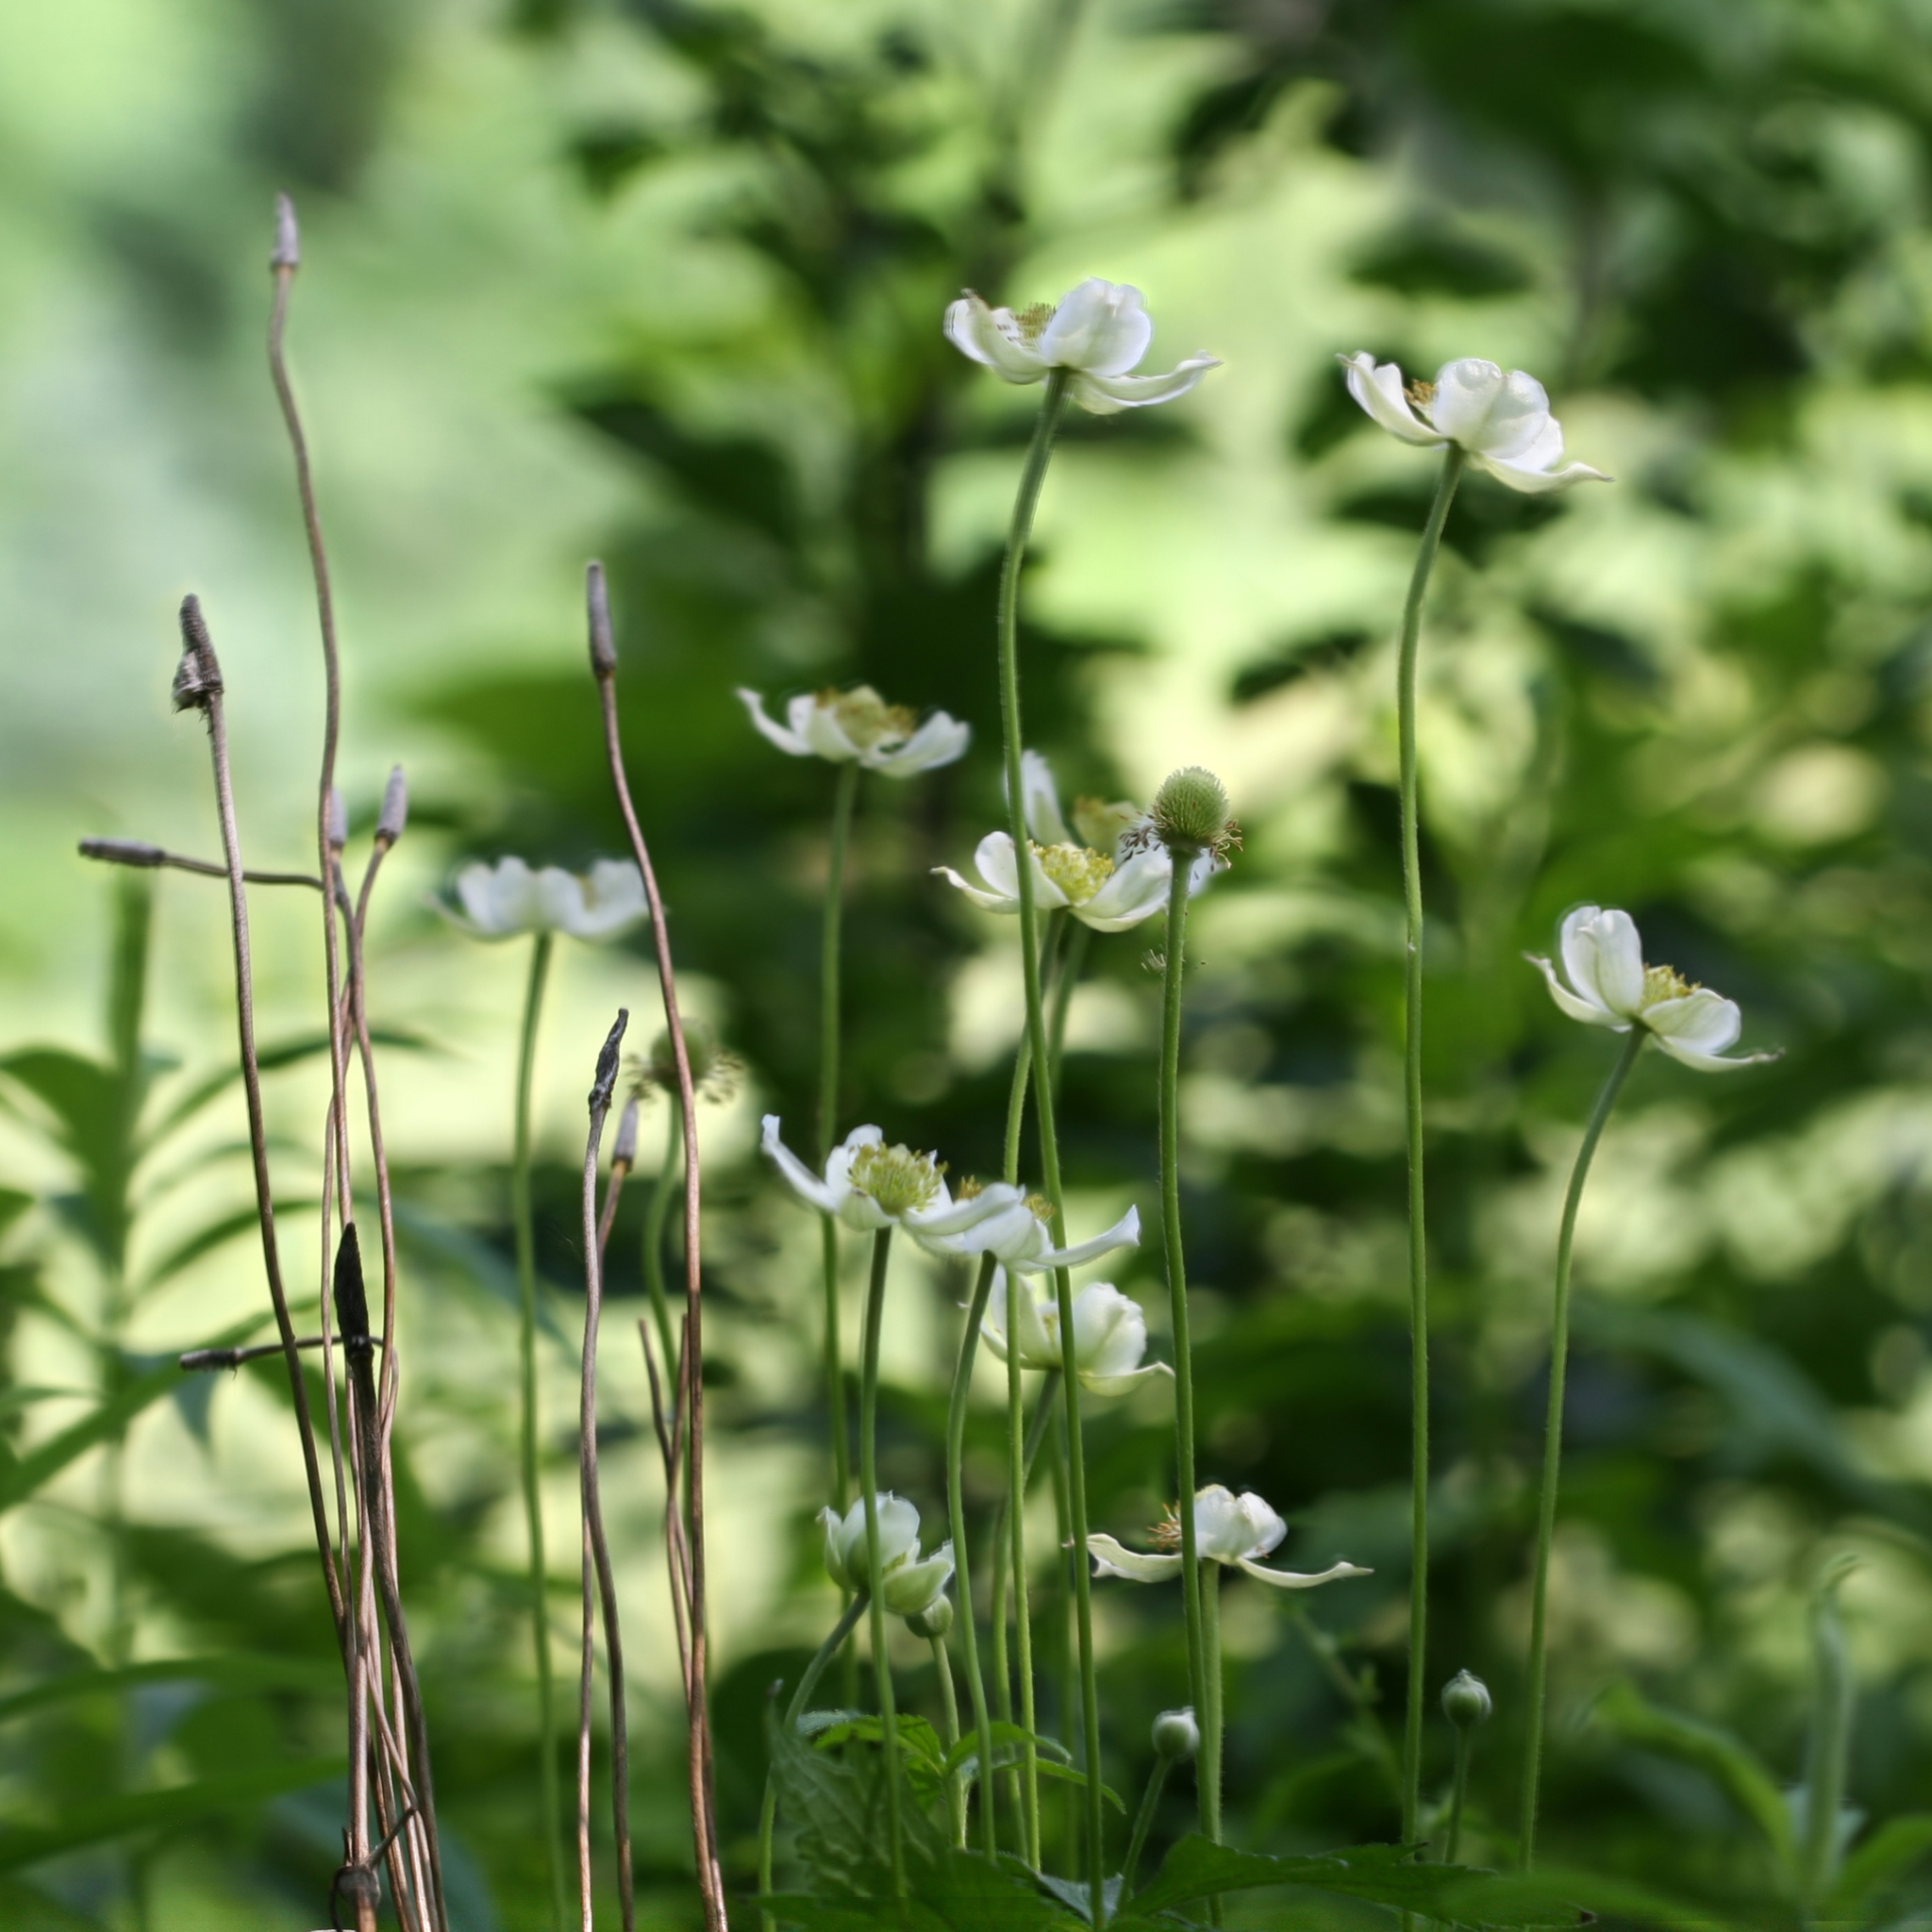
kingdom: Plantae
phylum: Tracheophyta
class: Magnoliopsida
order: Ranunculales
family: Ranunculaceae
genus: Anemone
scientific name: Anemone virginiana
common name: Tall anemone
